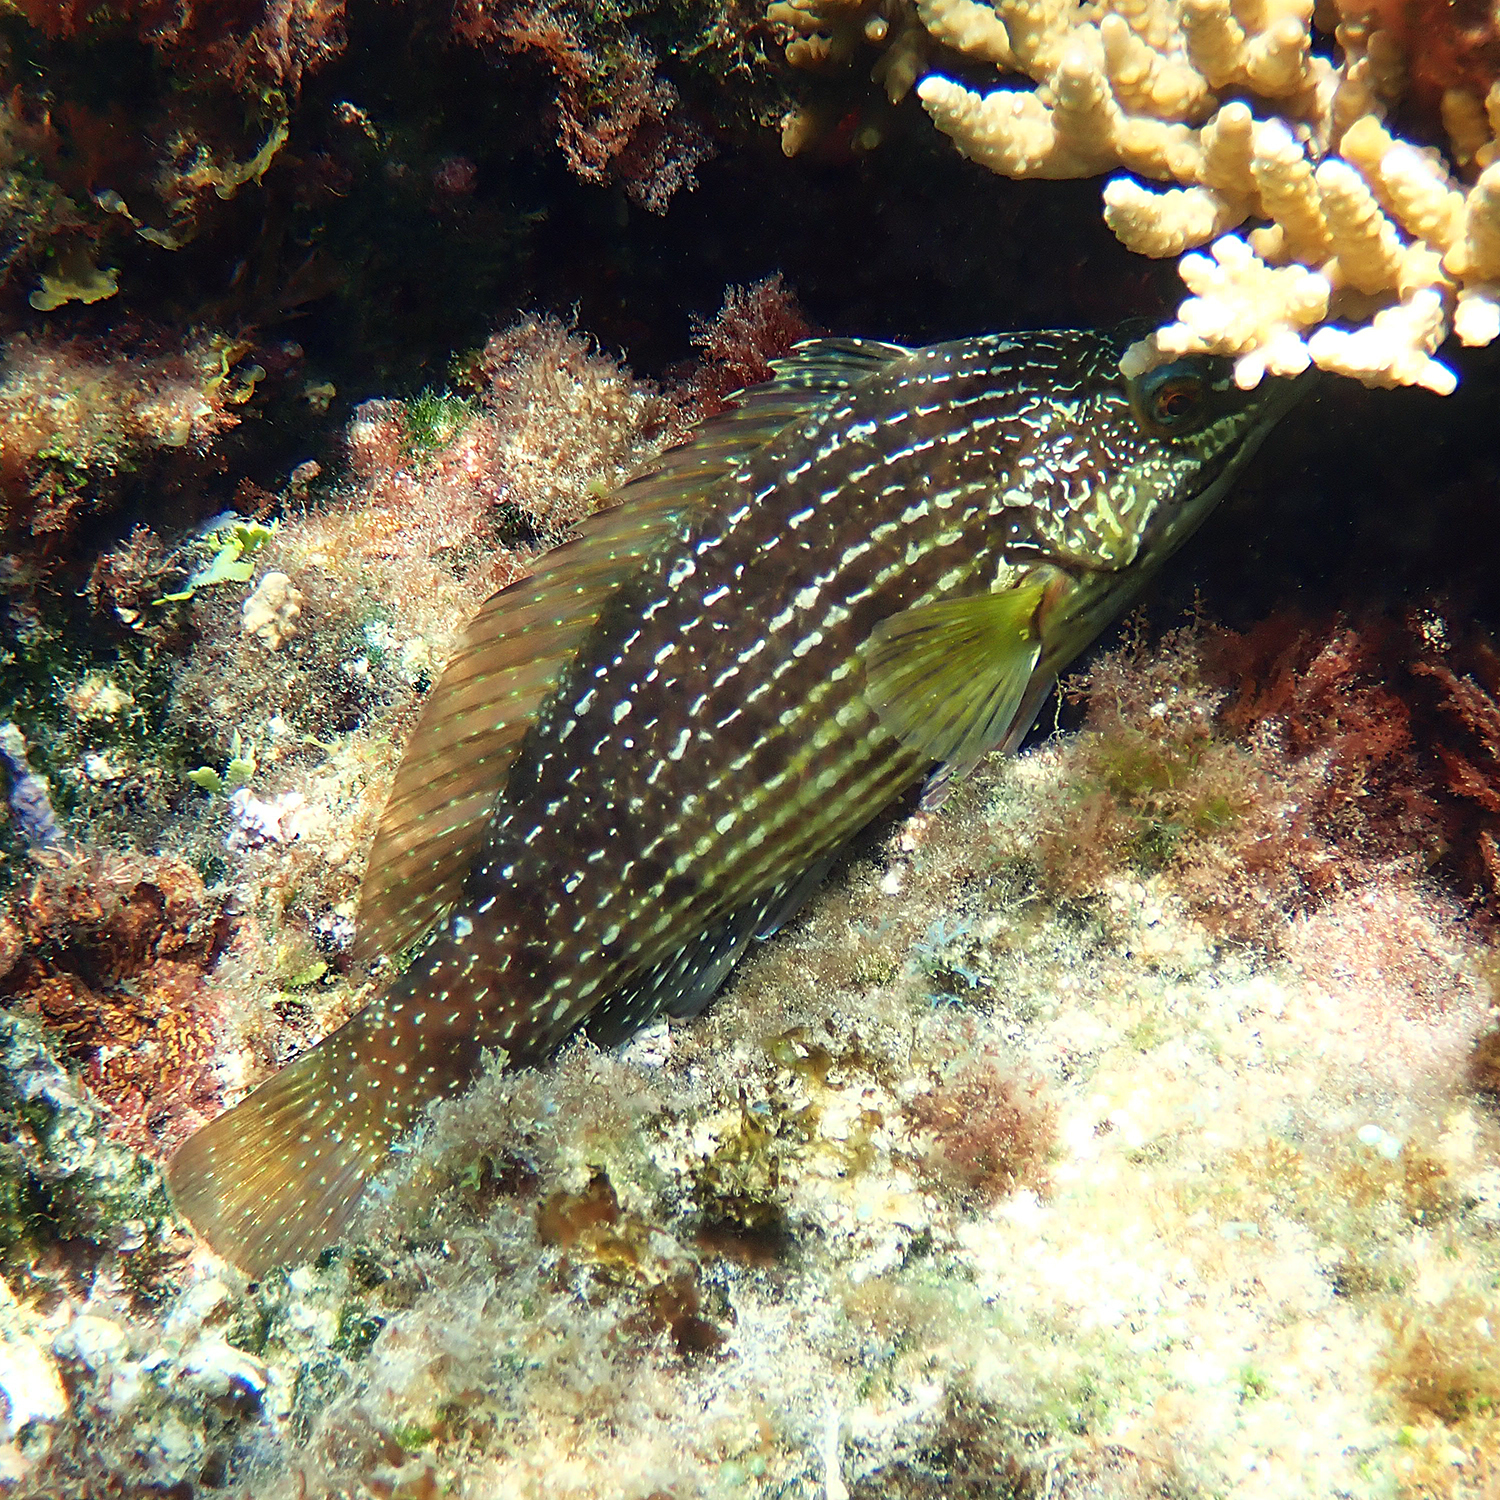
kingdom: Animalia
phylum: Chordata
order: Perciformes
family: Labridae
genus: Notolabrus
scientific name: Notolabrus inscriptus
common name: Green wrasse
